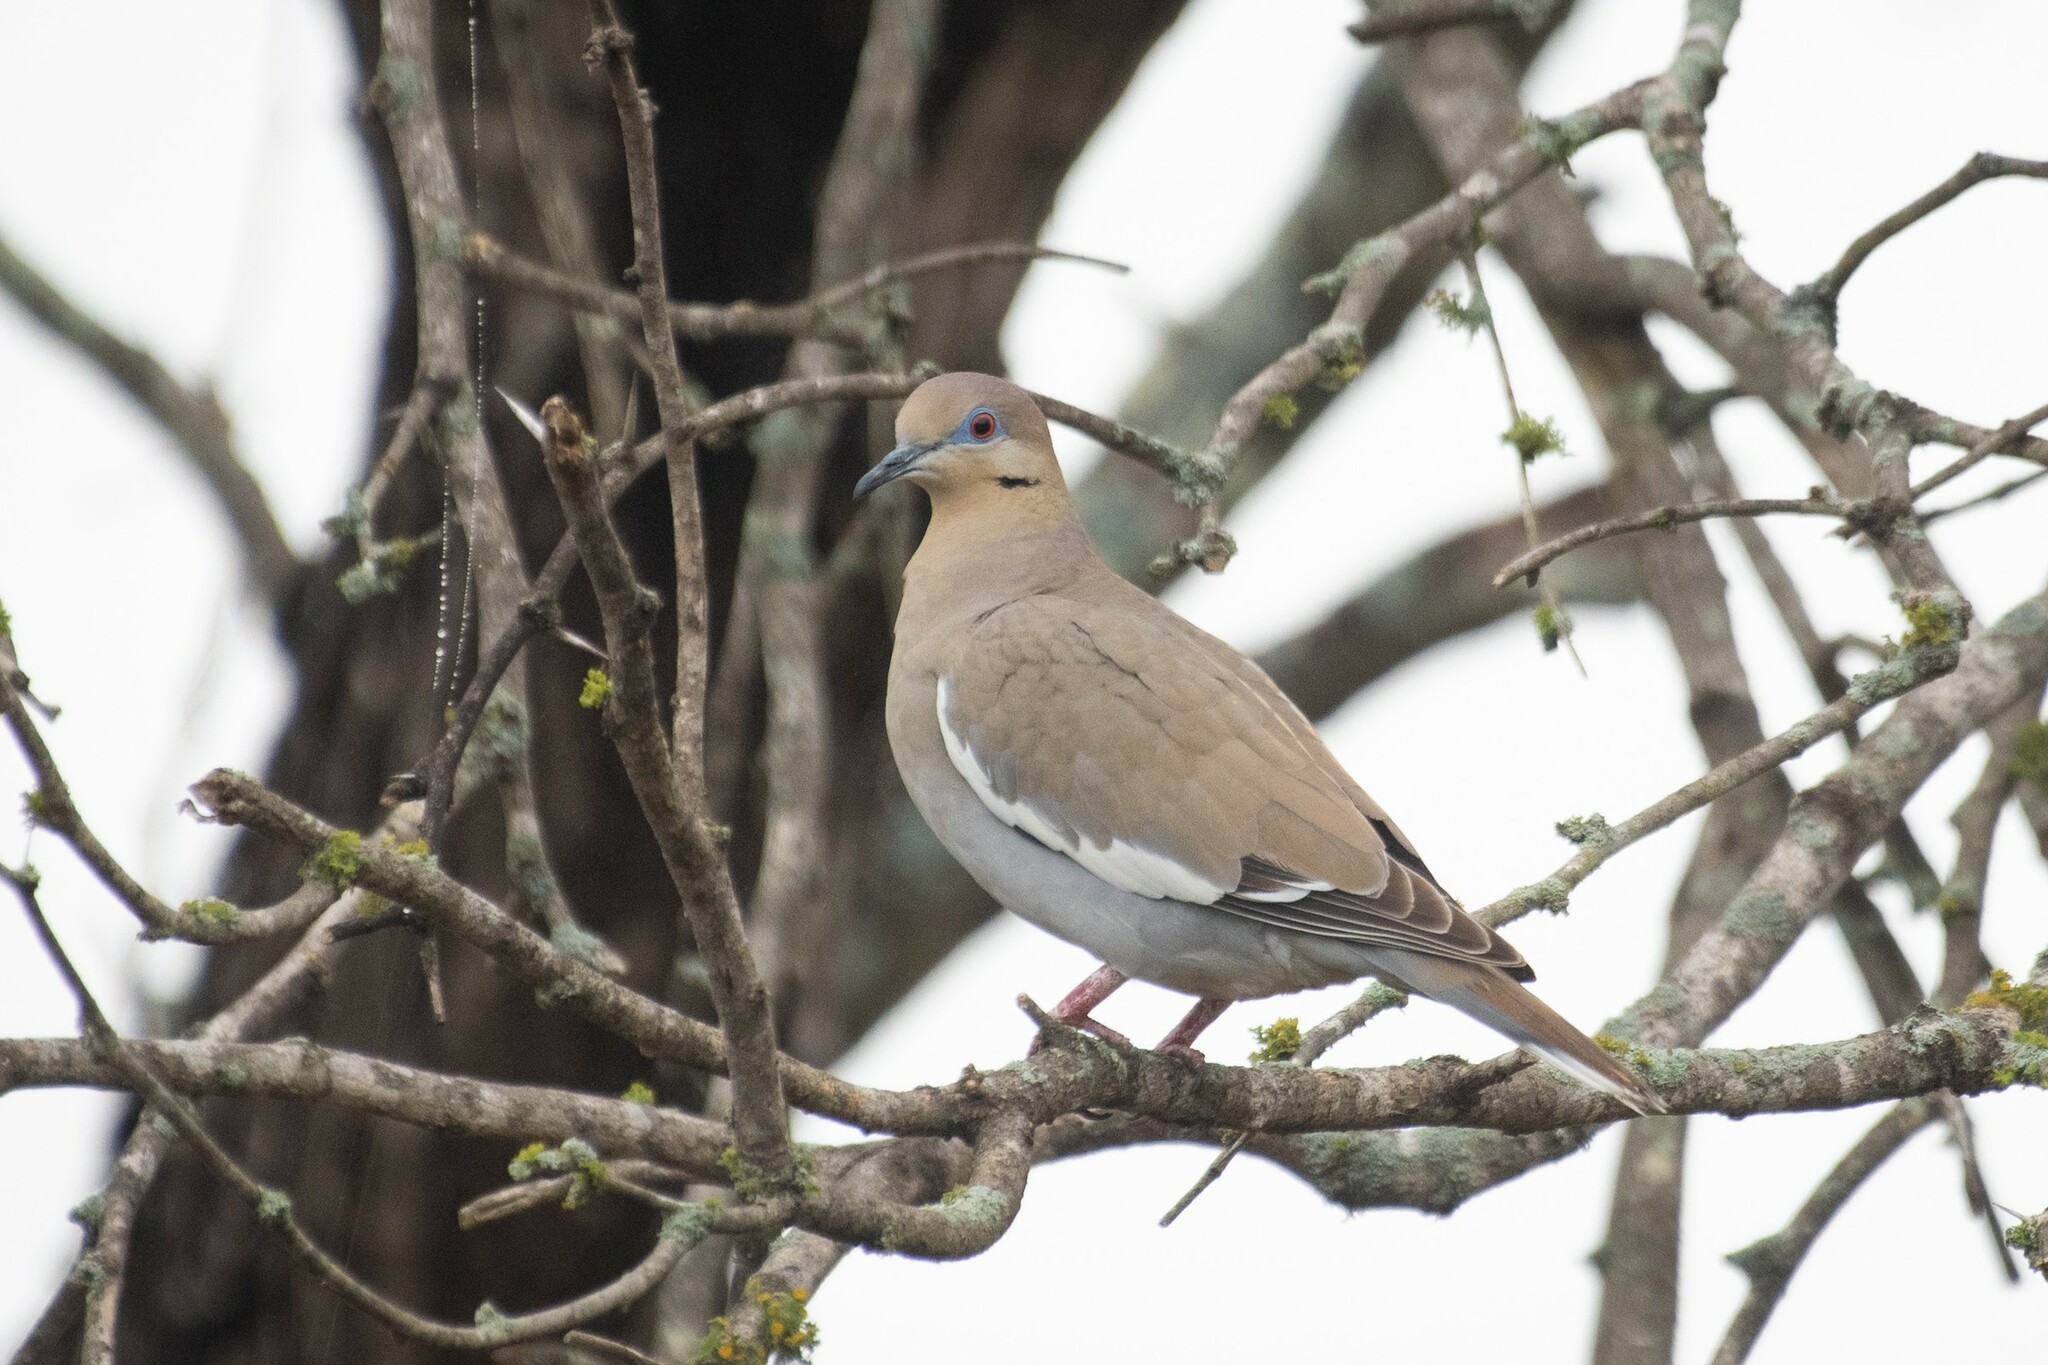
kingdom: Animalia
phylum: Chordata
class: Aves
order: Columbiformes
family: Columbidae
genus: Zenaida
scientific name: Zenaida asiatica
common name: White-winged dove
